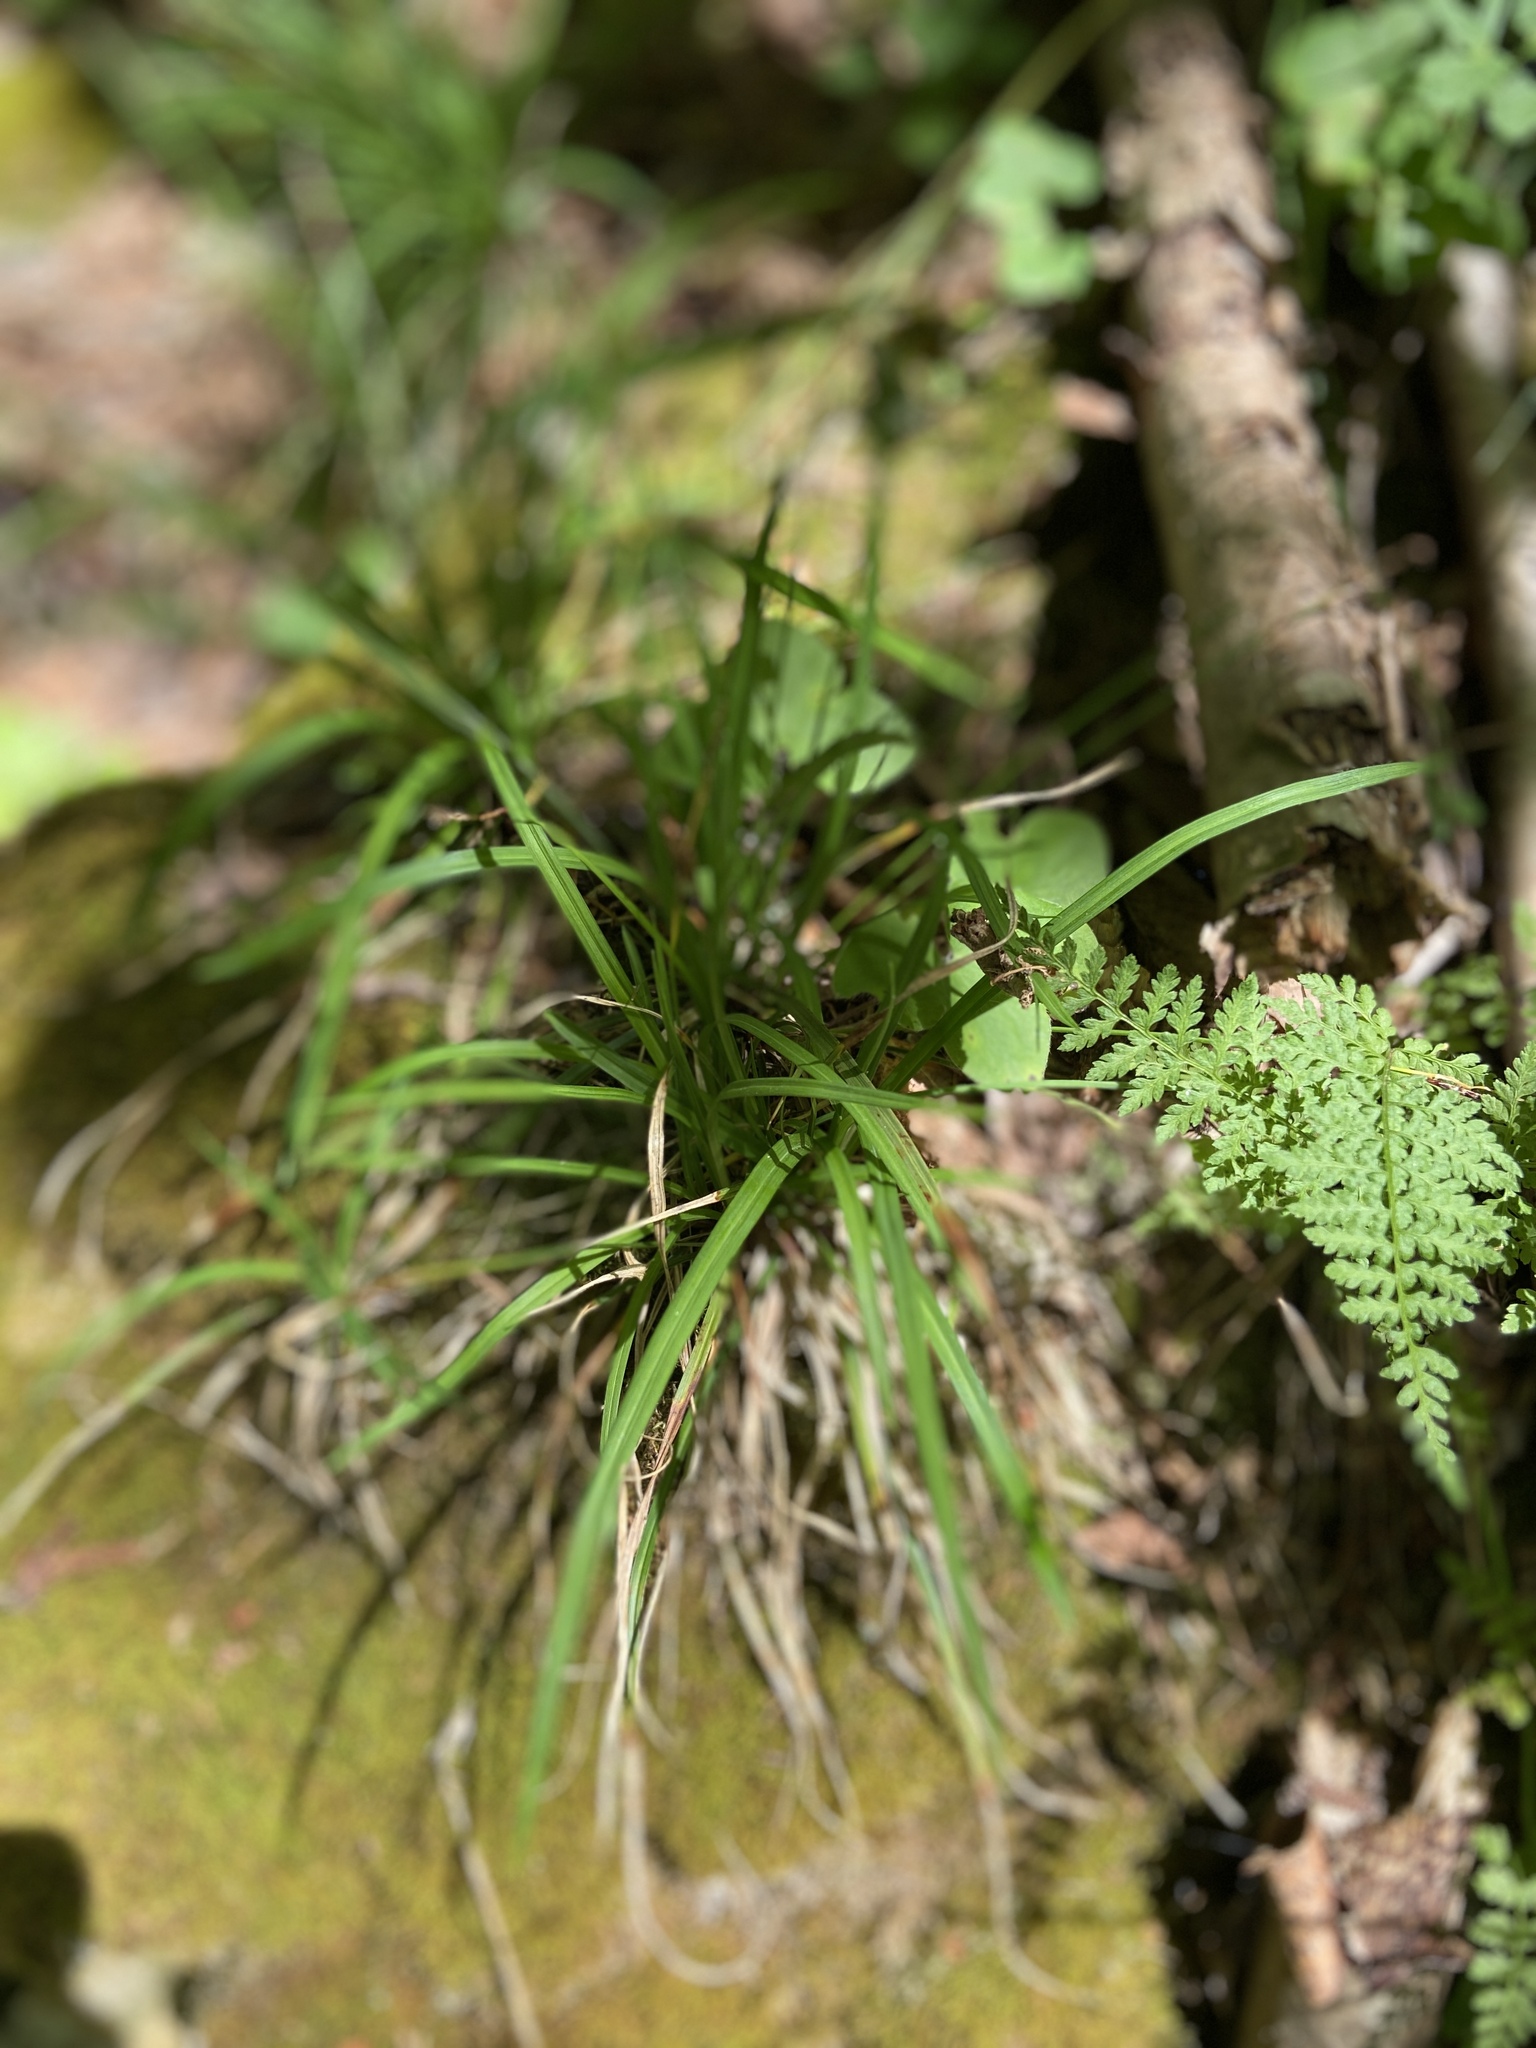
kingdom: Plantae
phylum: Tracheophyta
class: Liliopsida
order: Poales
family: Cyperaceae
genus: Carex
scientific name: Carex digitata
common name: Fingered sedge
